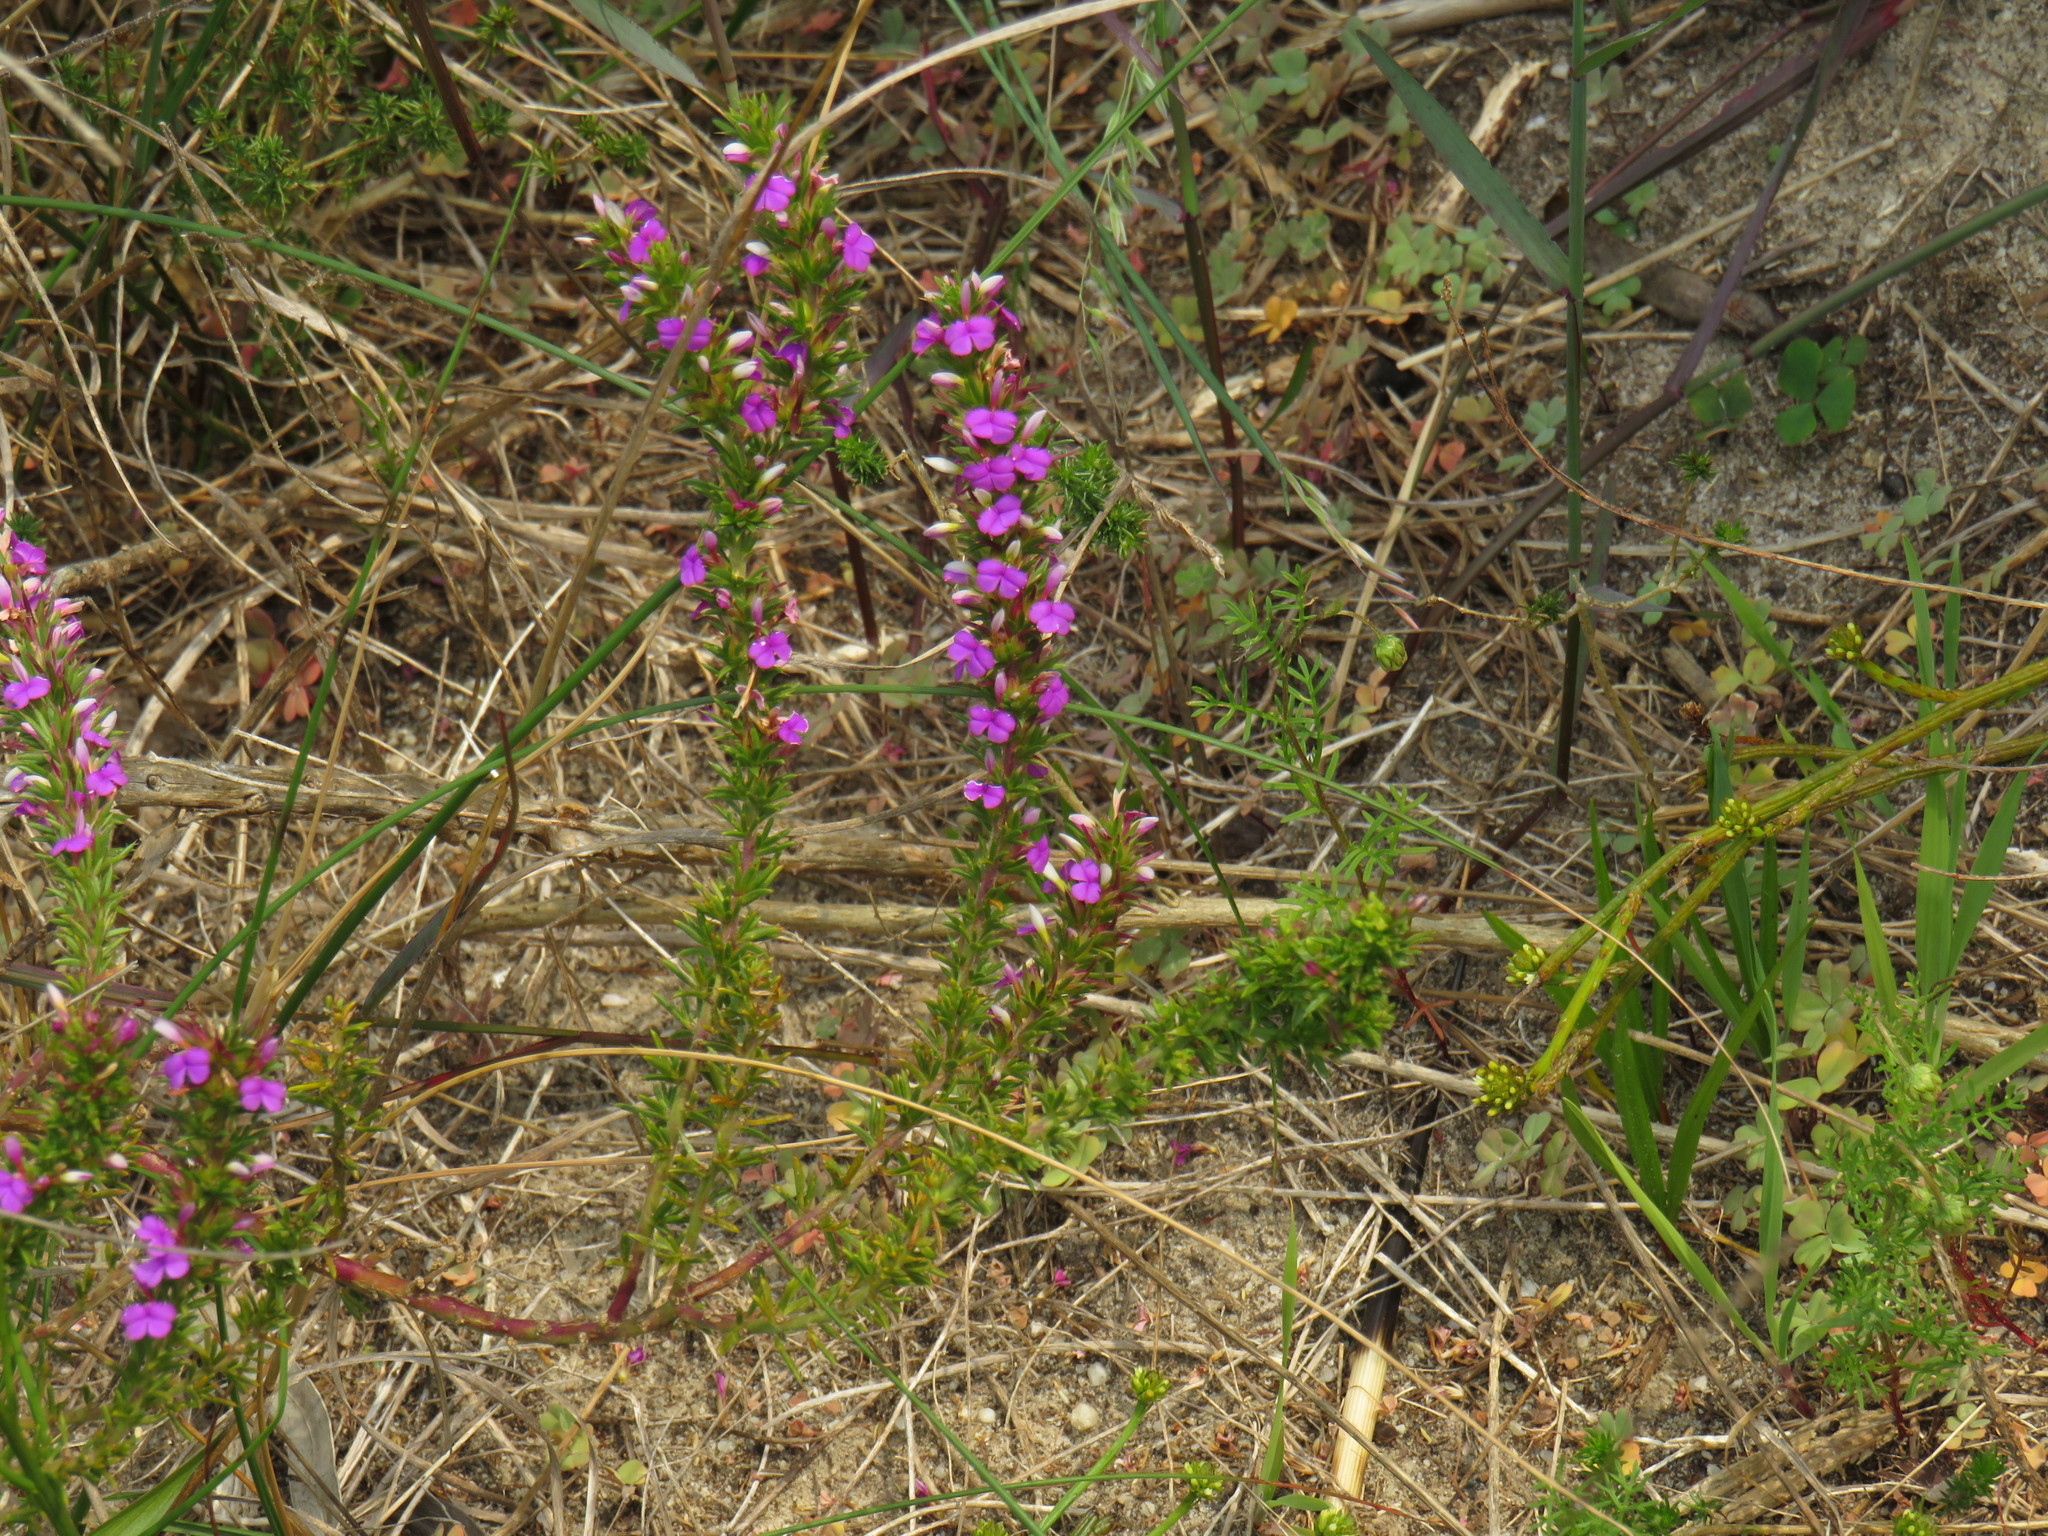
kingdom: Plantae
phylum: Tracheophyta
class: Magnoliopsida
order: Fabales
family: Polygalaceae
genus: Muraltia
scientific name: Muraltia heisteria
